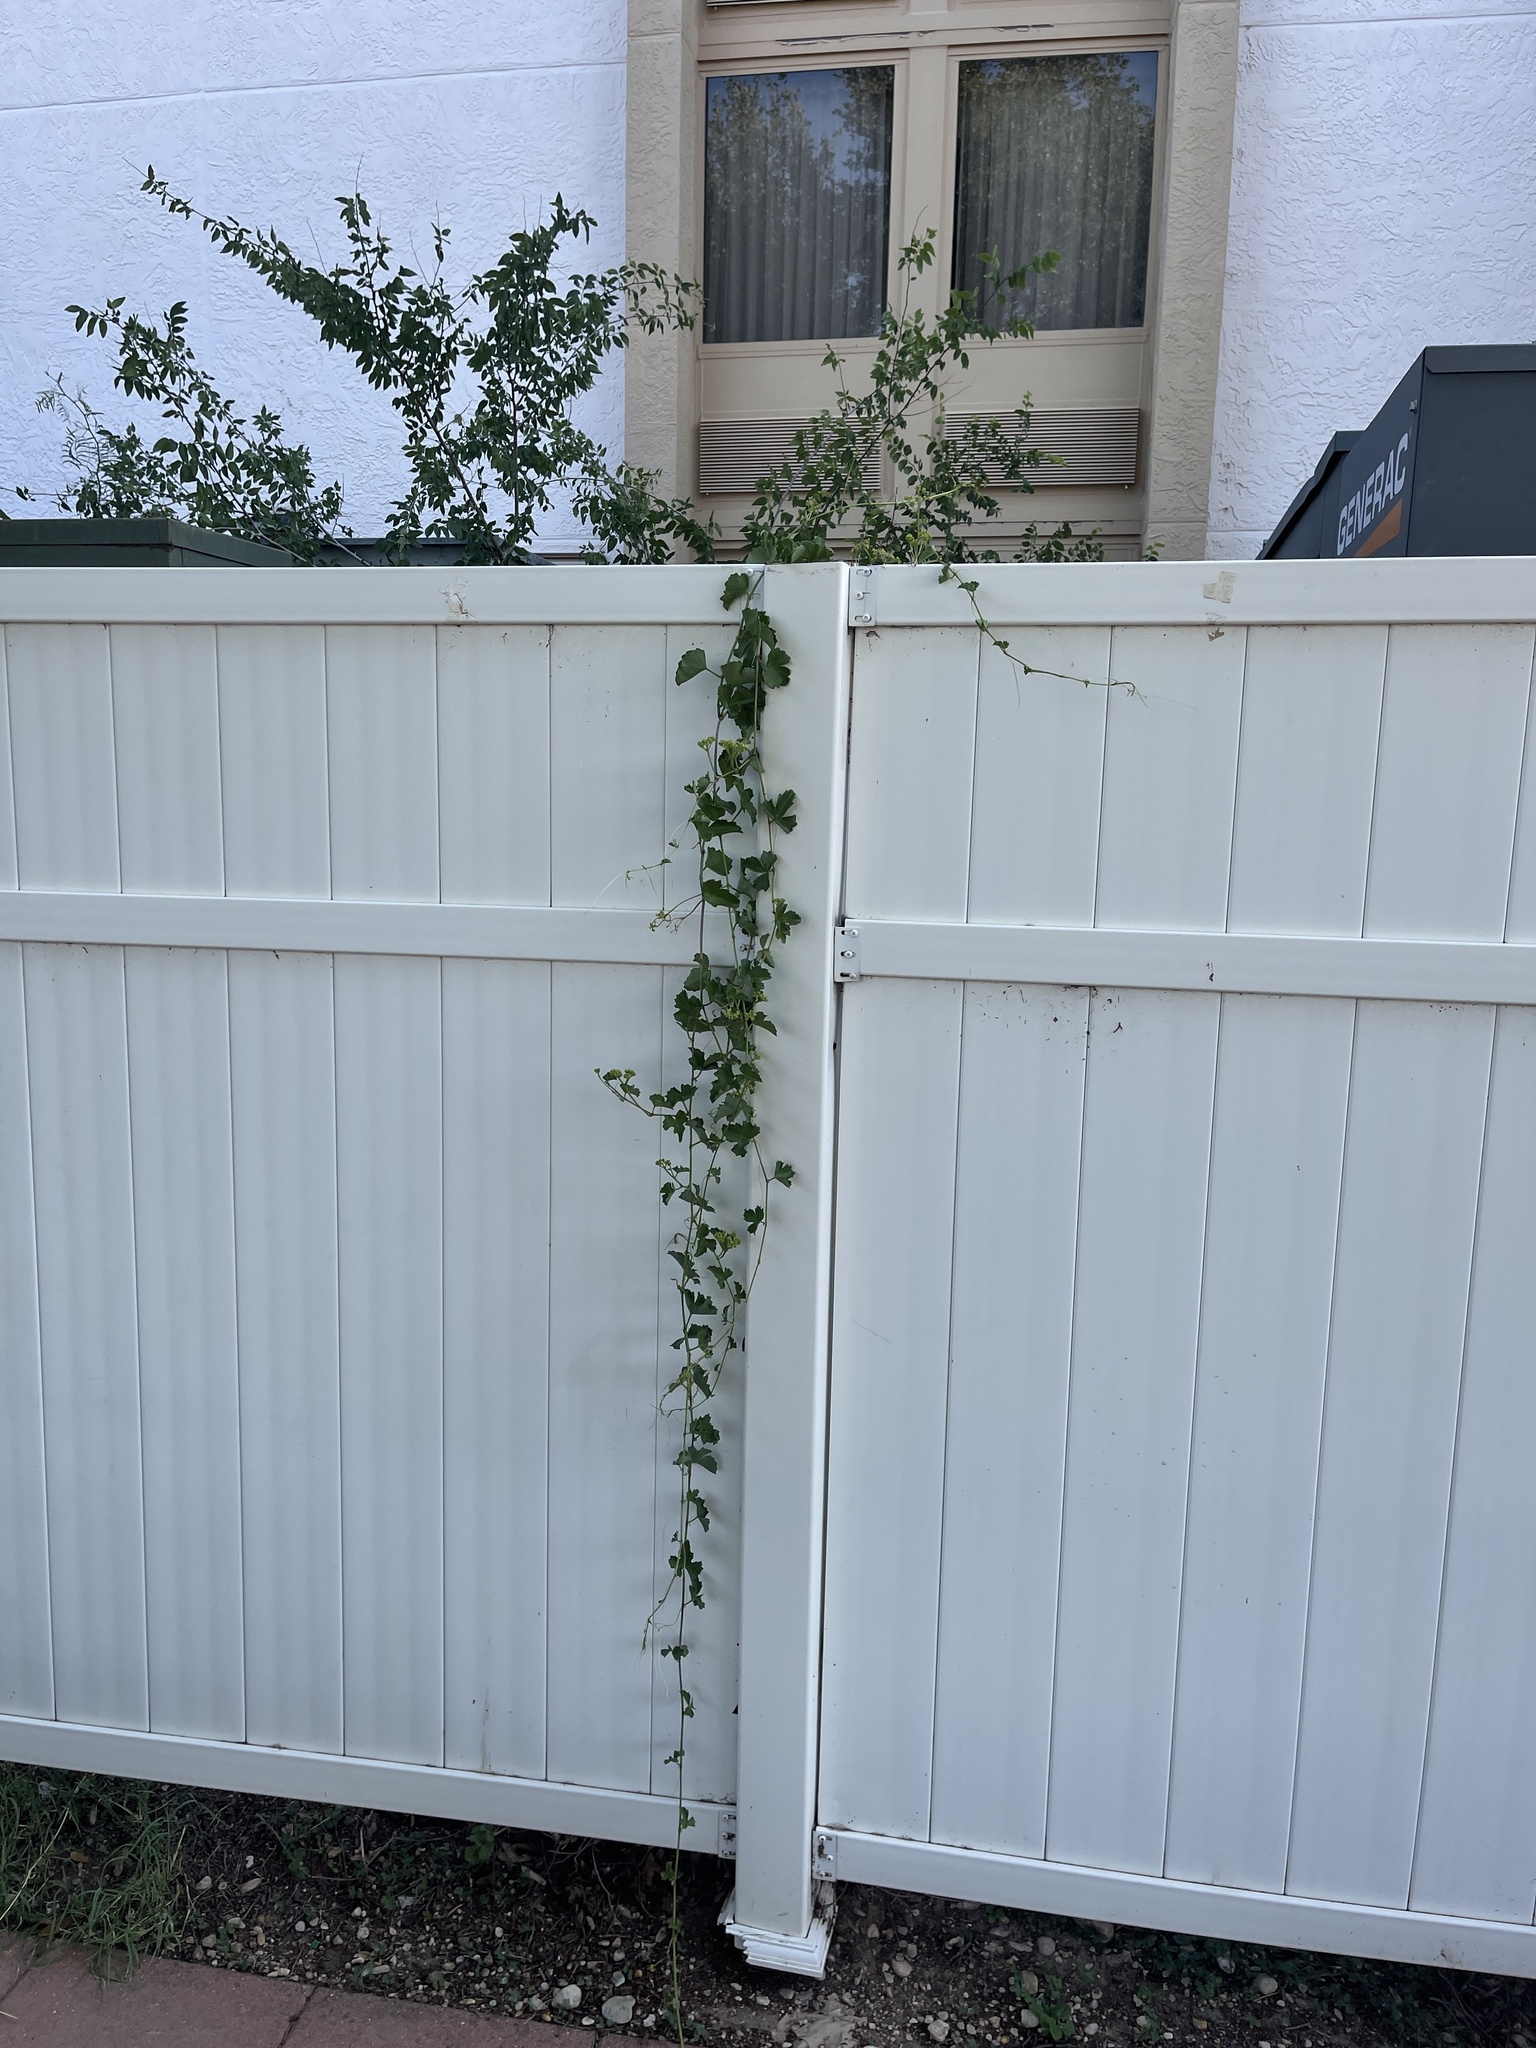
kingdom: Plantae
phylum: Tracheophyta
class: Magnoliopsida
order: Vitales
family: Vitaceae
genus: Cissus
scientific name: Cissus trifoliata
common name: Vine-sorrel
